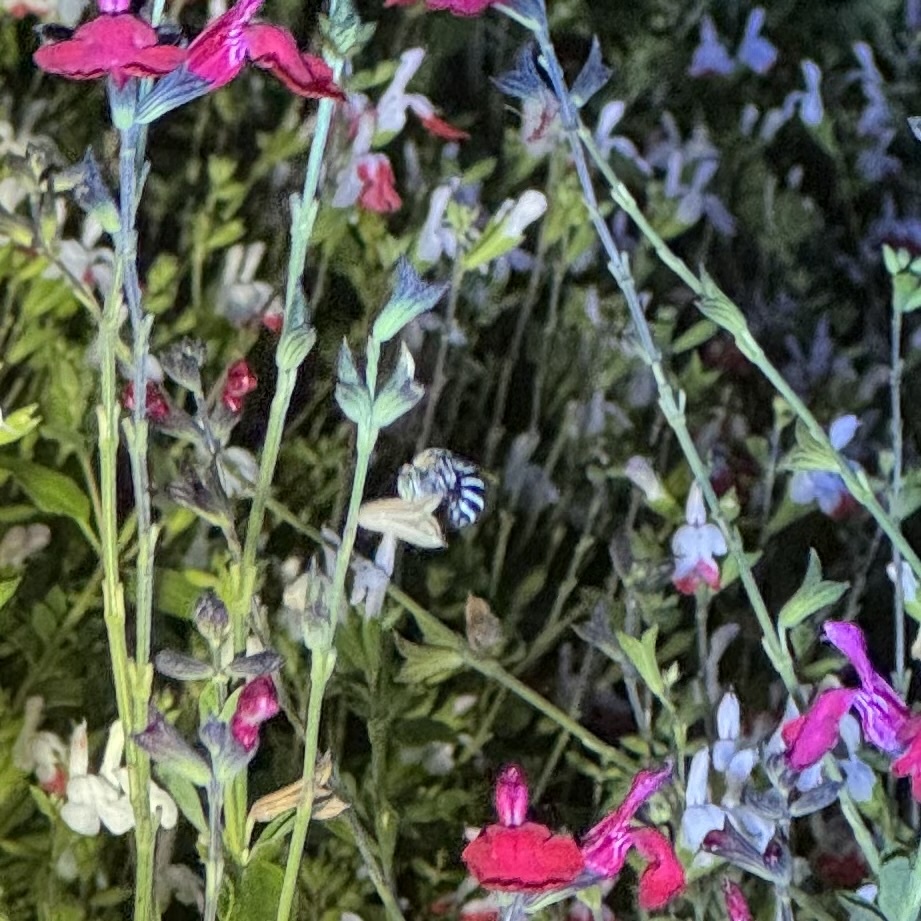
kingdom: Animalia
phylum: Arthropoda
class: Insecta
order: Hymenoptera
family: Apidae
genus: Amegilla
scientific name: Amegilla asserta
